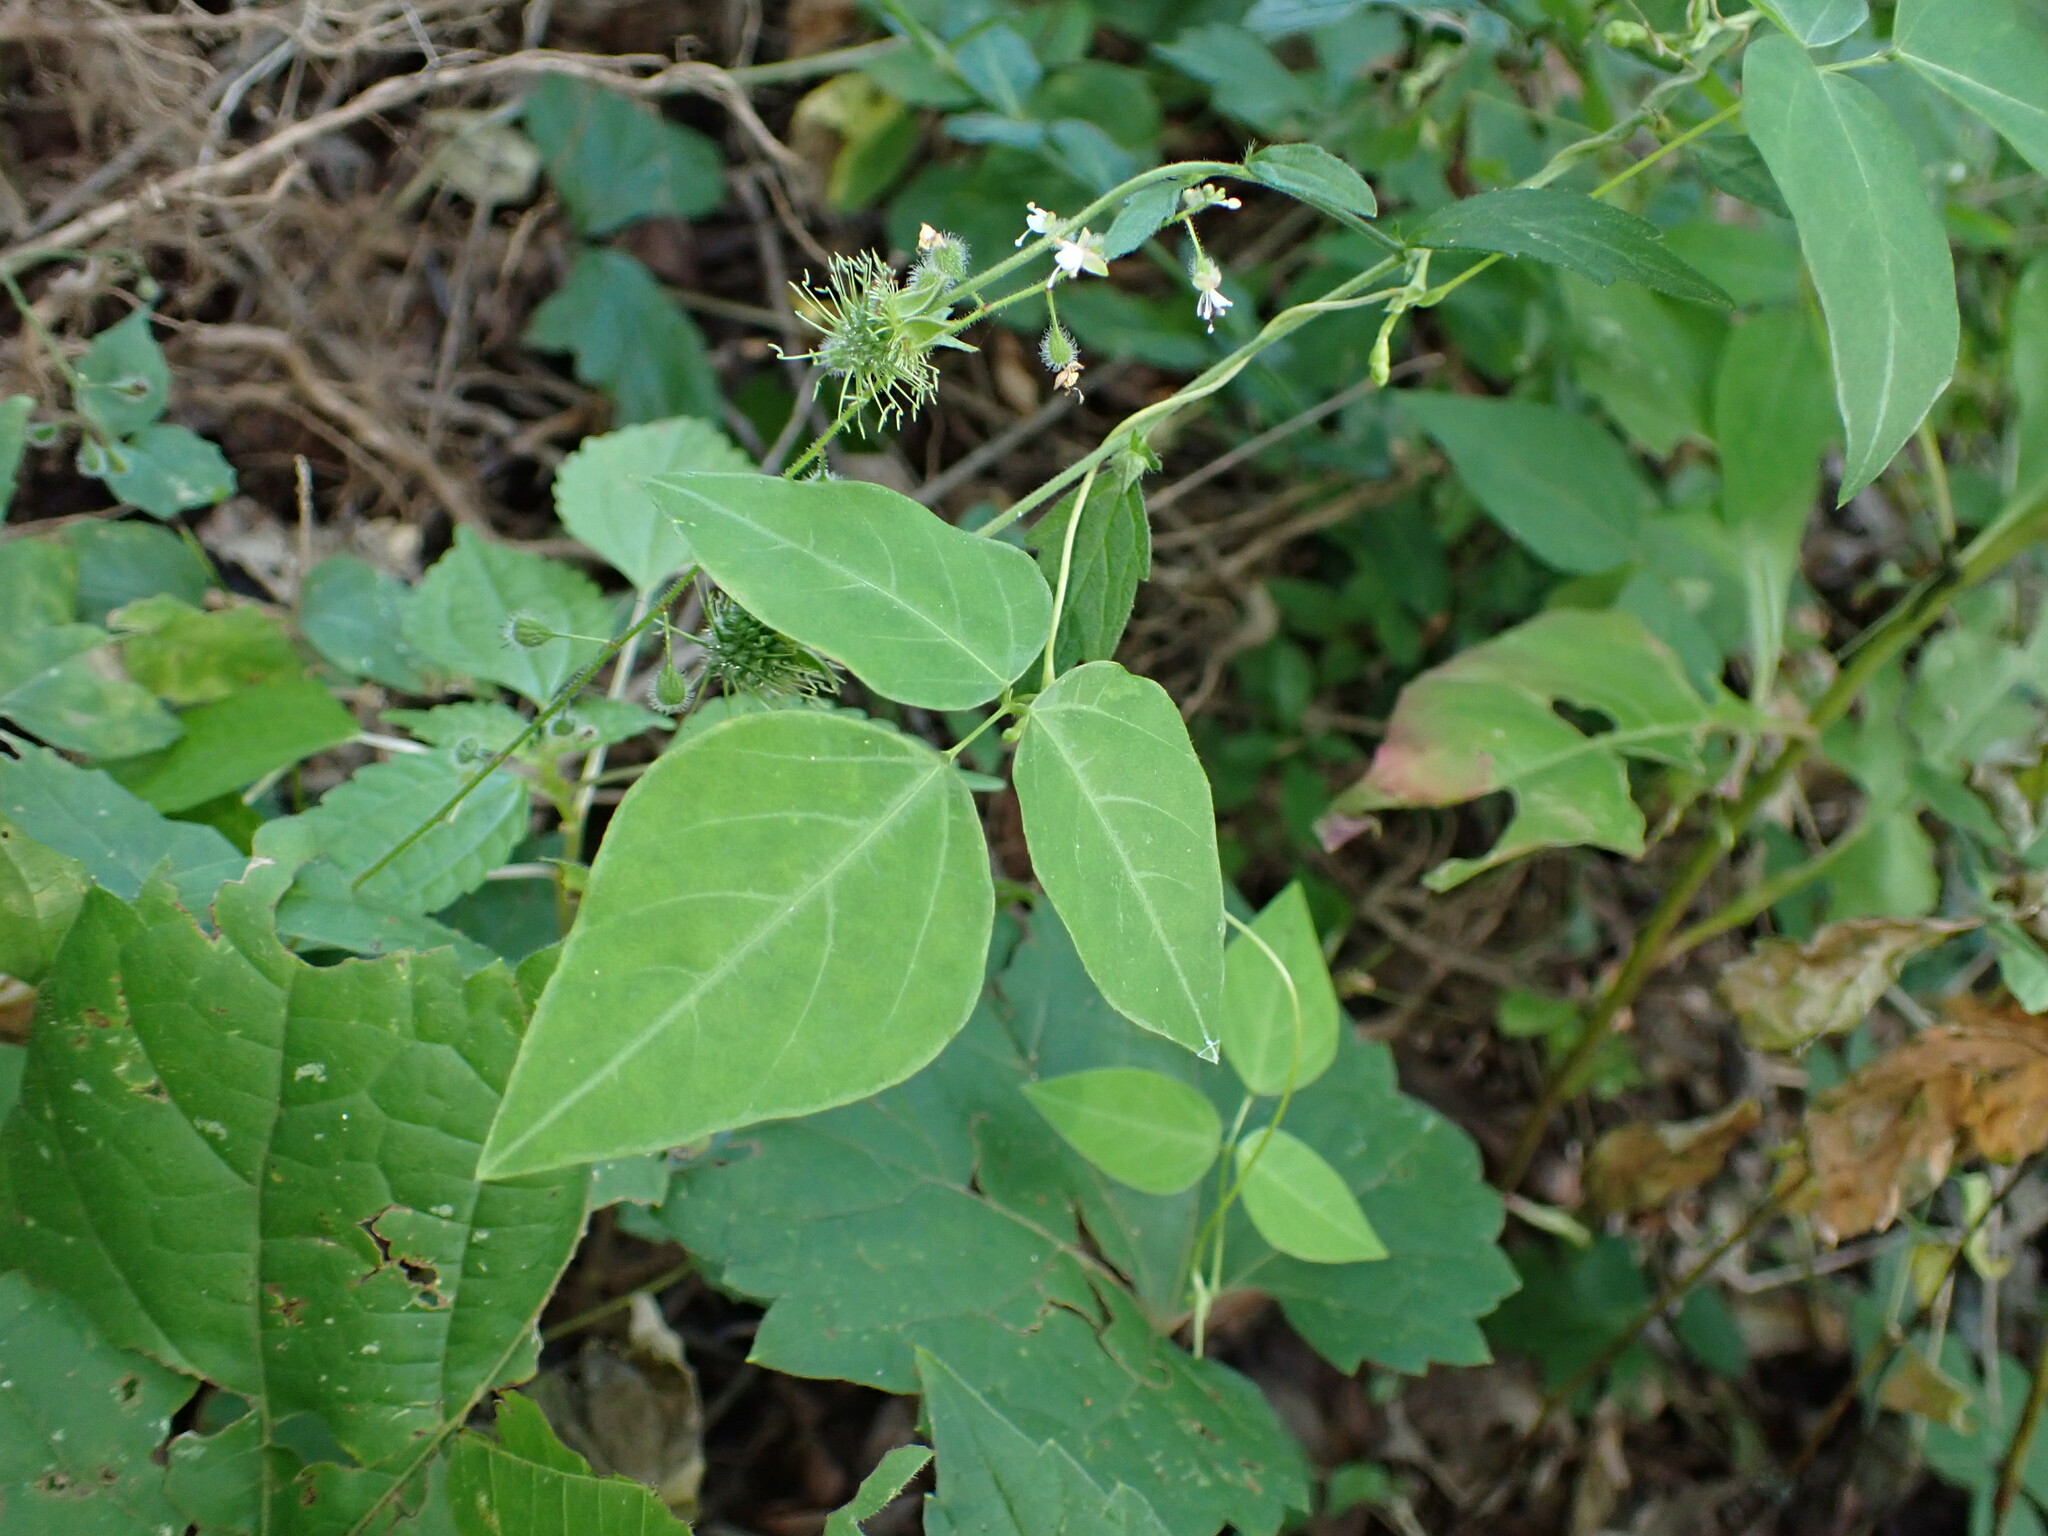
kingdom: Plantae
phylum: Tracheophyta
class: Magnoliopsida
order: Fabales
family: Fabaceae
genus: Amphicarpaea
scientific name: Amphicarpaea bracteata
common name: American hog peanut
